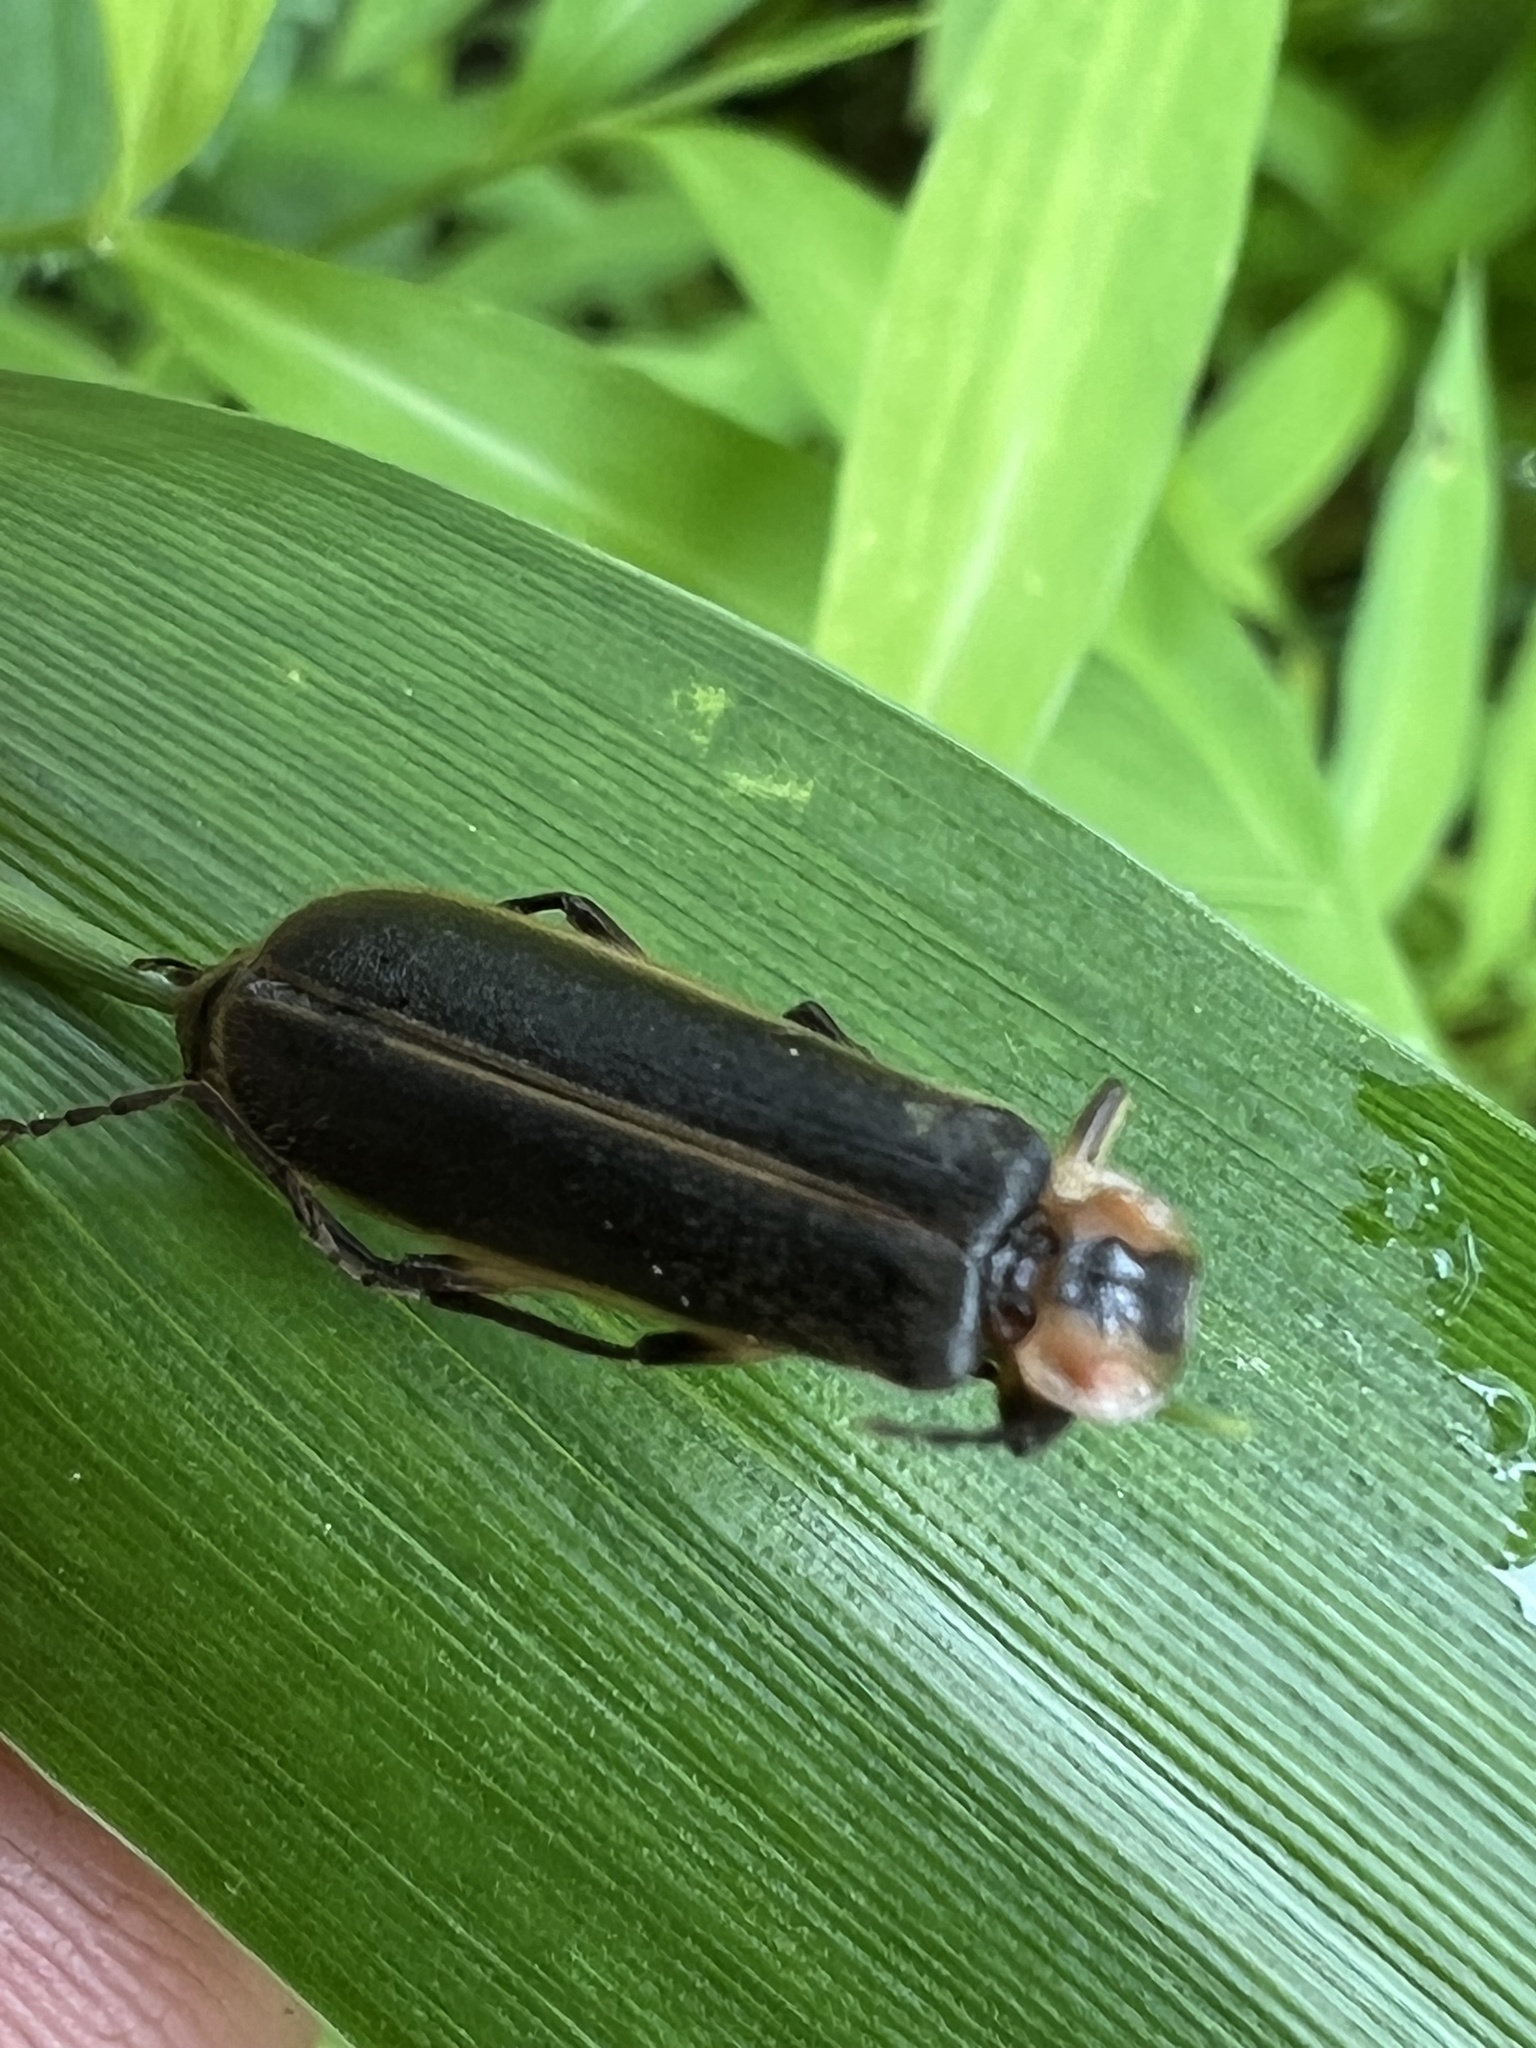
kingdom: Animalia
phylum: Arthropoda
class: Insecta
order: Coleoptera
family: Cantharidae
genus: Podabrus
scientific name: Podabrus basilaris
